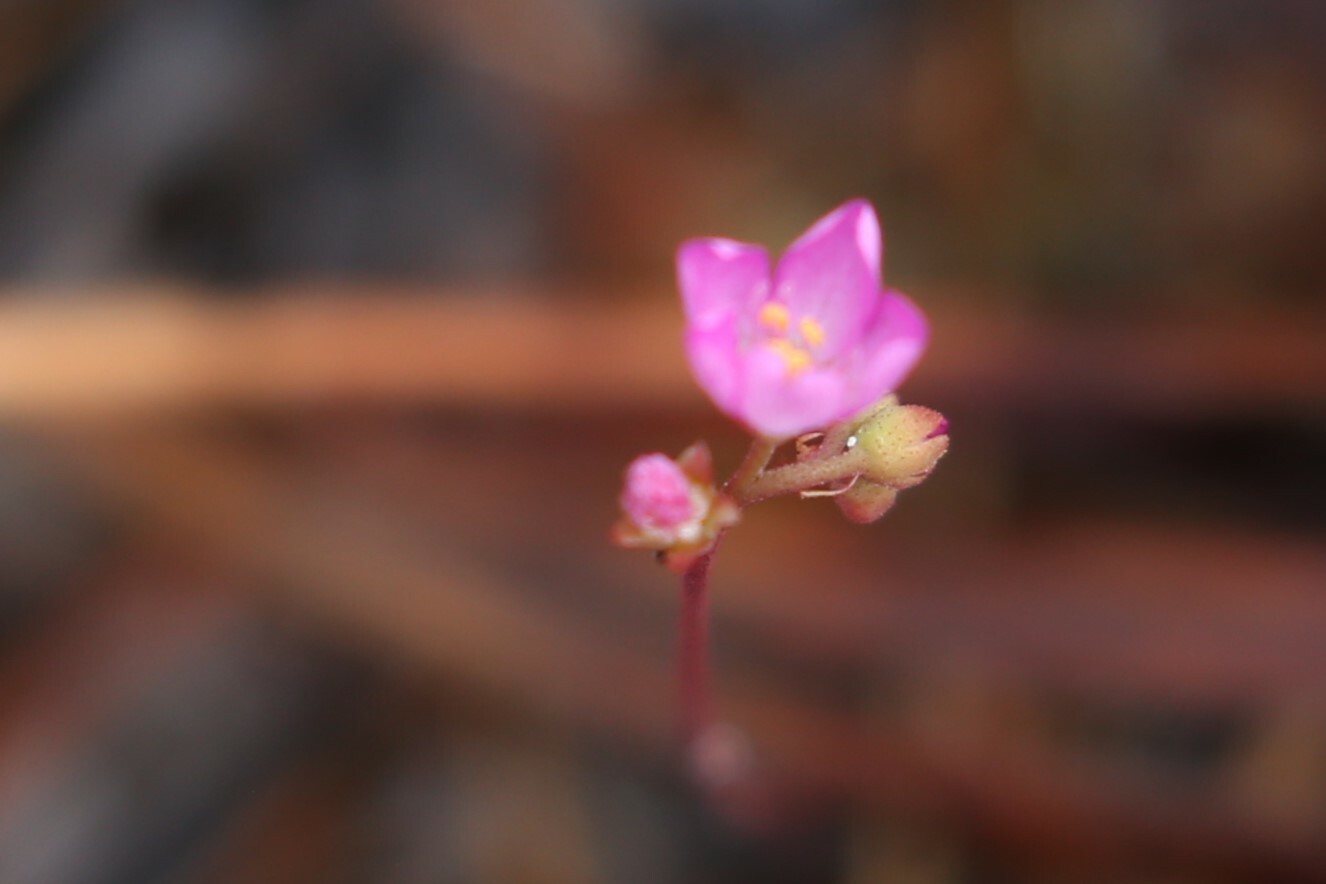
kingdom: Plantae
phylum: Tracheophyta
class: Magnoliopsida
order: Caryophyllales
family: Droseraceae
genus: Drosera
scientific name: Drosera spatulata
